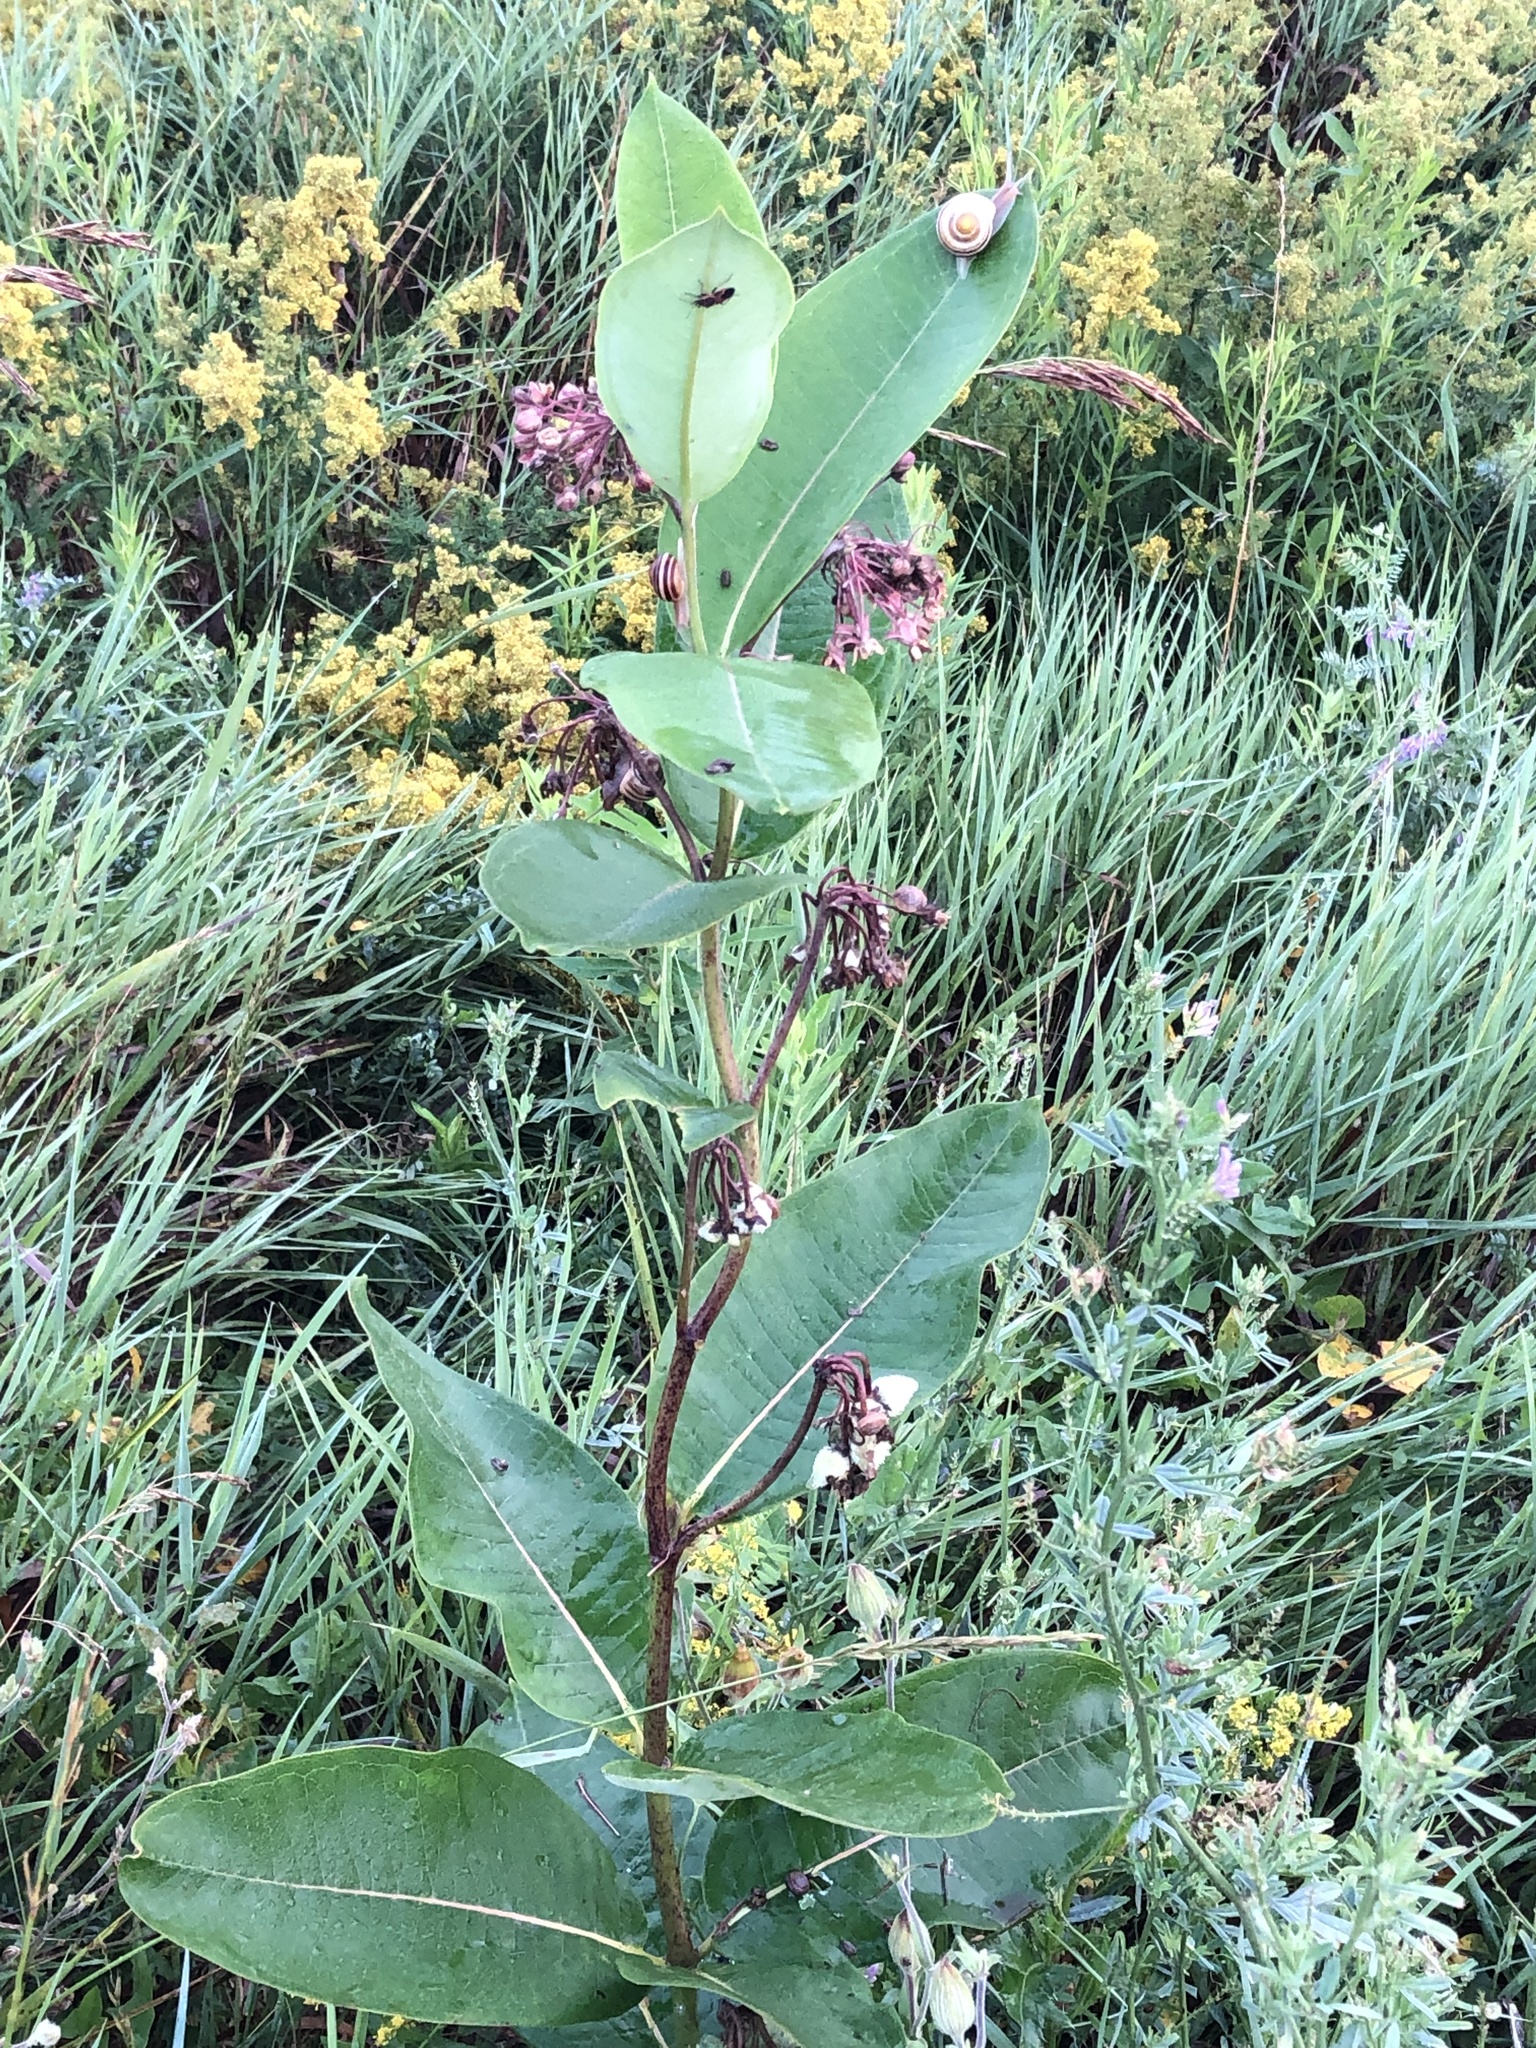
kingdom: Plantae
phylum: Tracheophyta
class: Magnoliopsida
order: Gentianales
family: Apocynaceae
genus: Asclepias
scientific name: Asclepias syriaca
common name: Common milkweed
